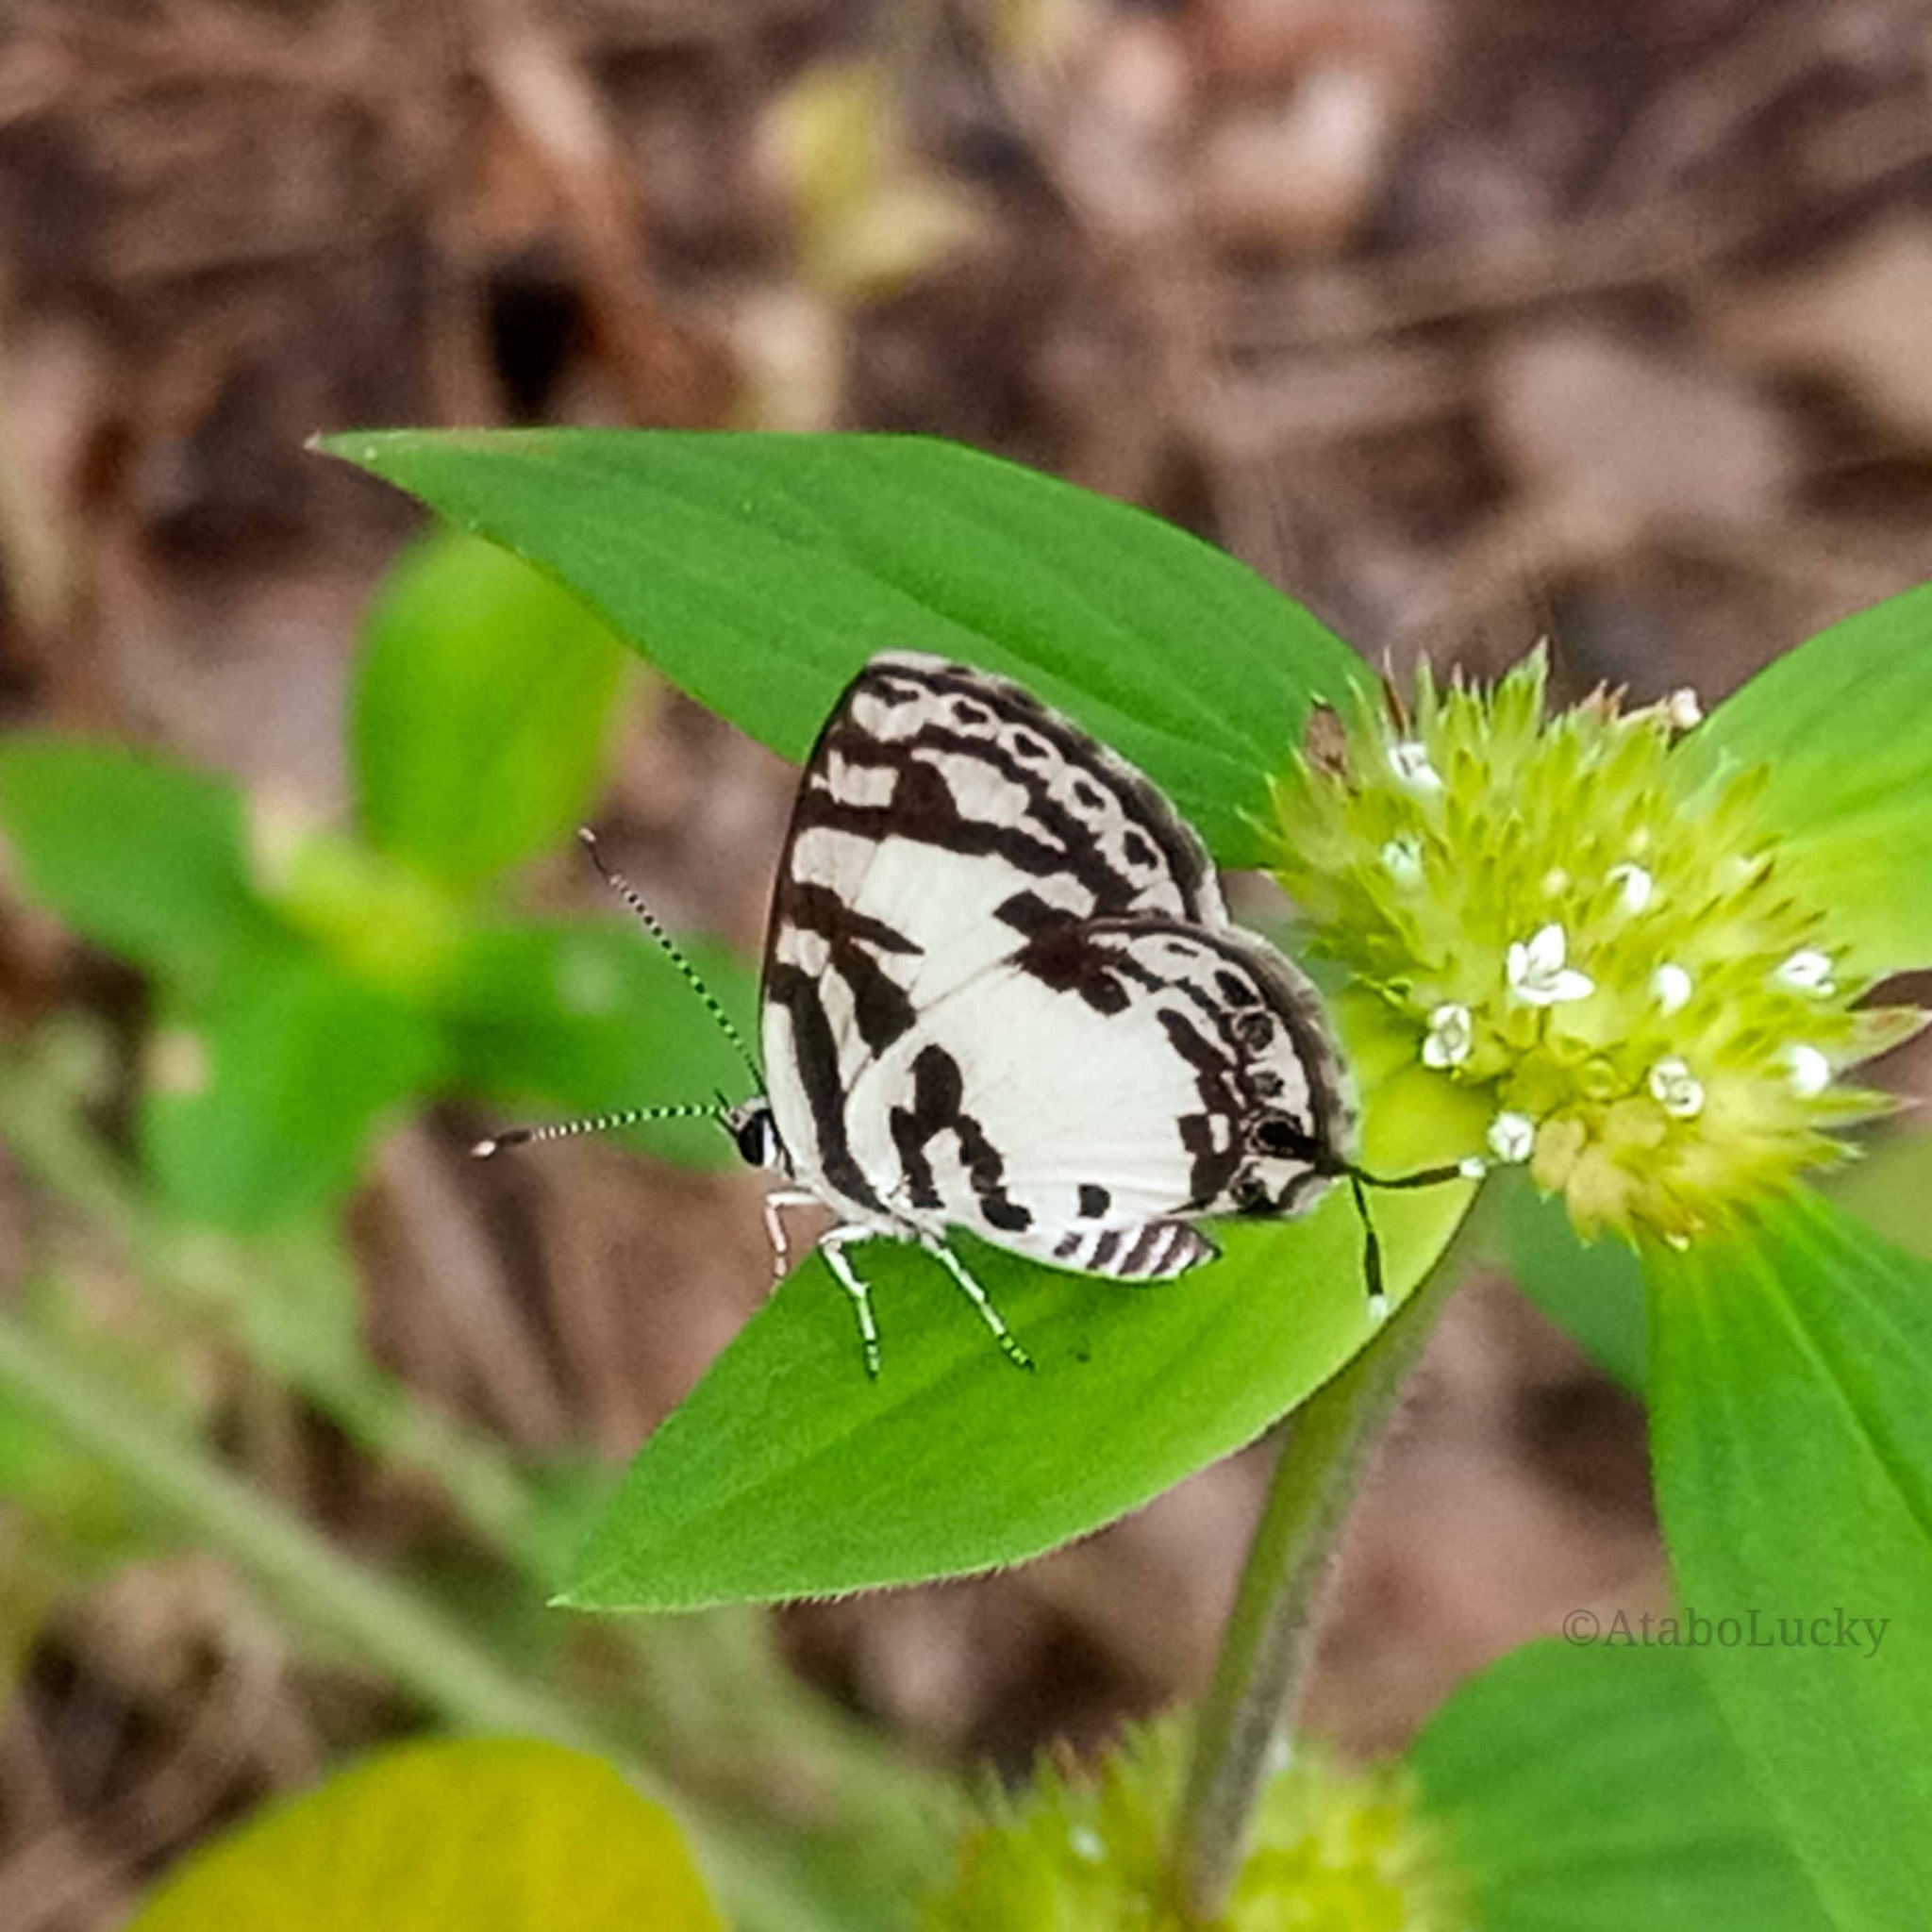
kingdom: Animalia
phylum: Arthropoda
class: Insecta
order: Lepidoptera
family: Lycaenidae
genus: Tuxentius
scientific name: Tuxentius
